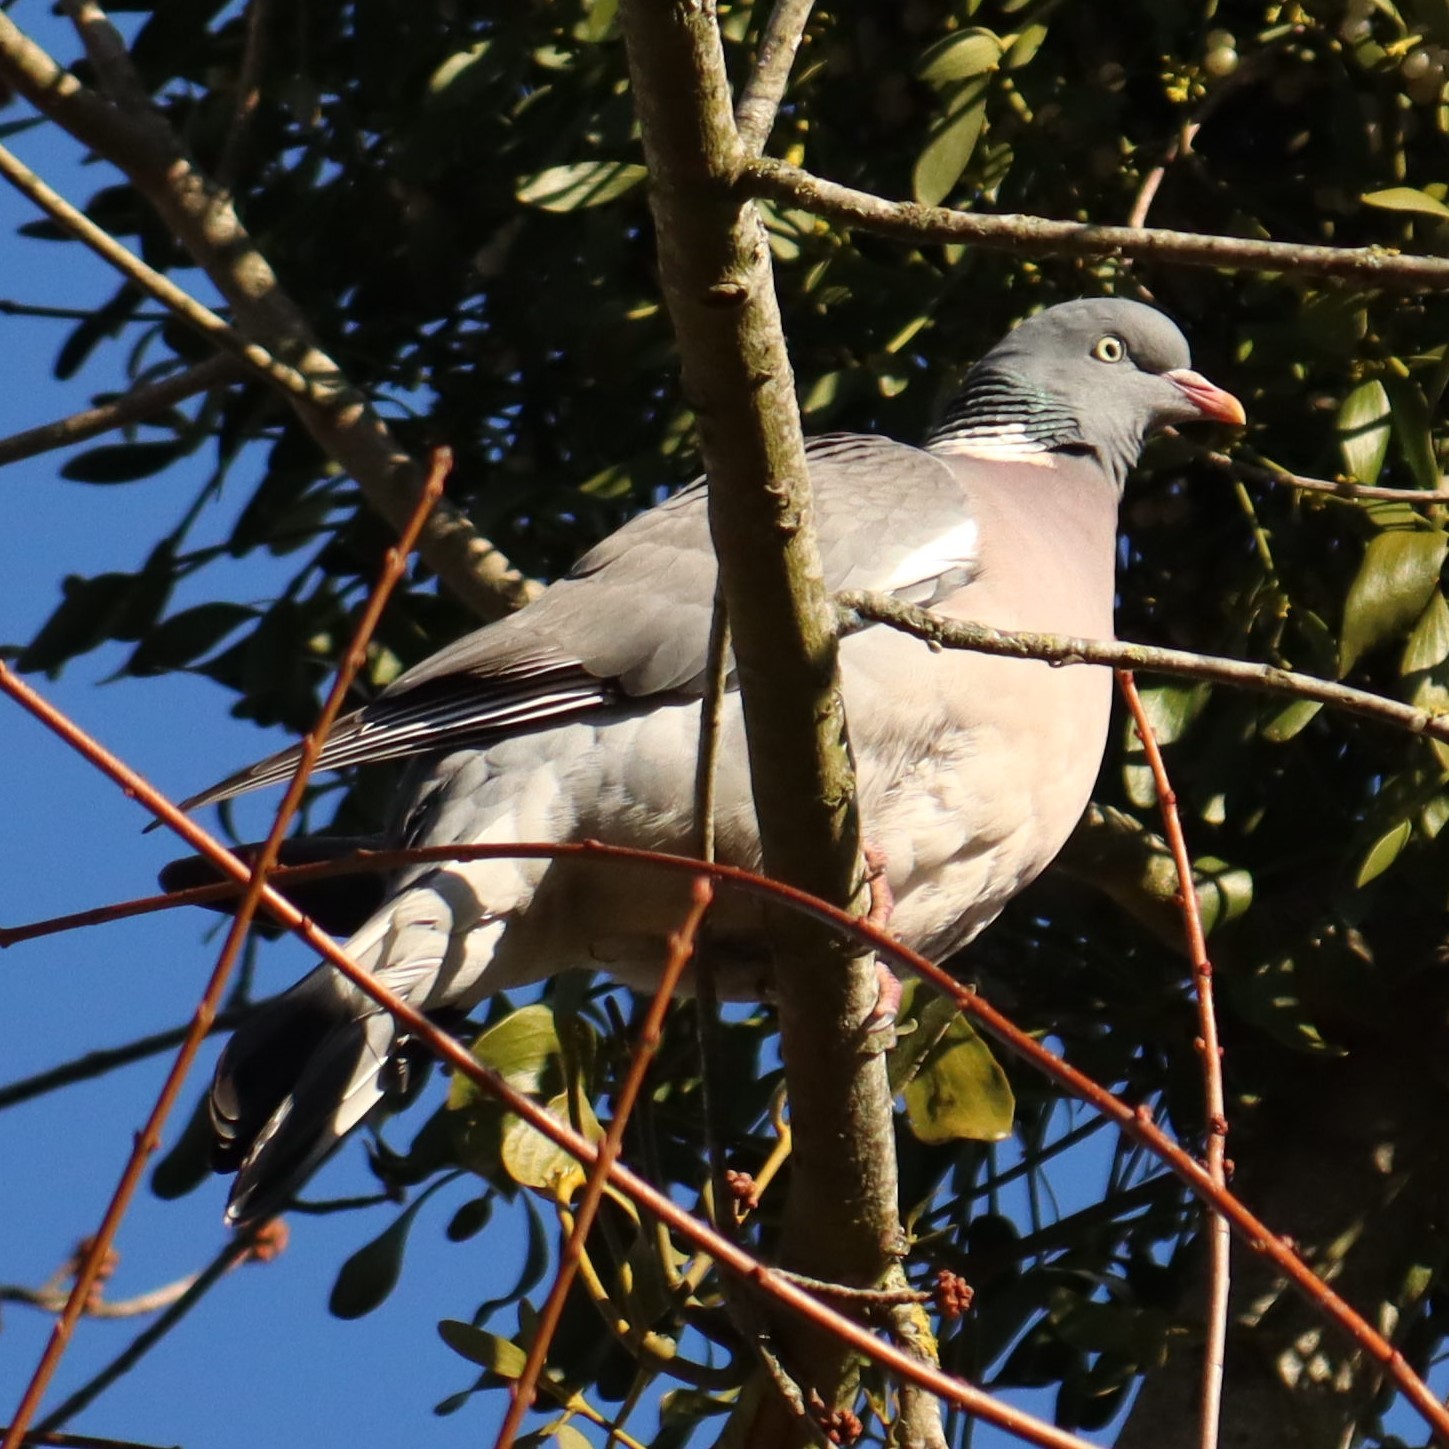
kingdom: Animalia
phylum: Chordata
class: Aves
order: Columbiformes
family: Columbidae
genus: Columba
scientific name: Columba palumbus
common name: Common wood pigeon
